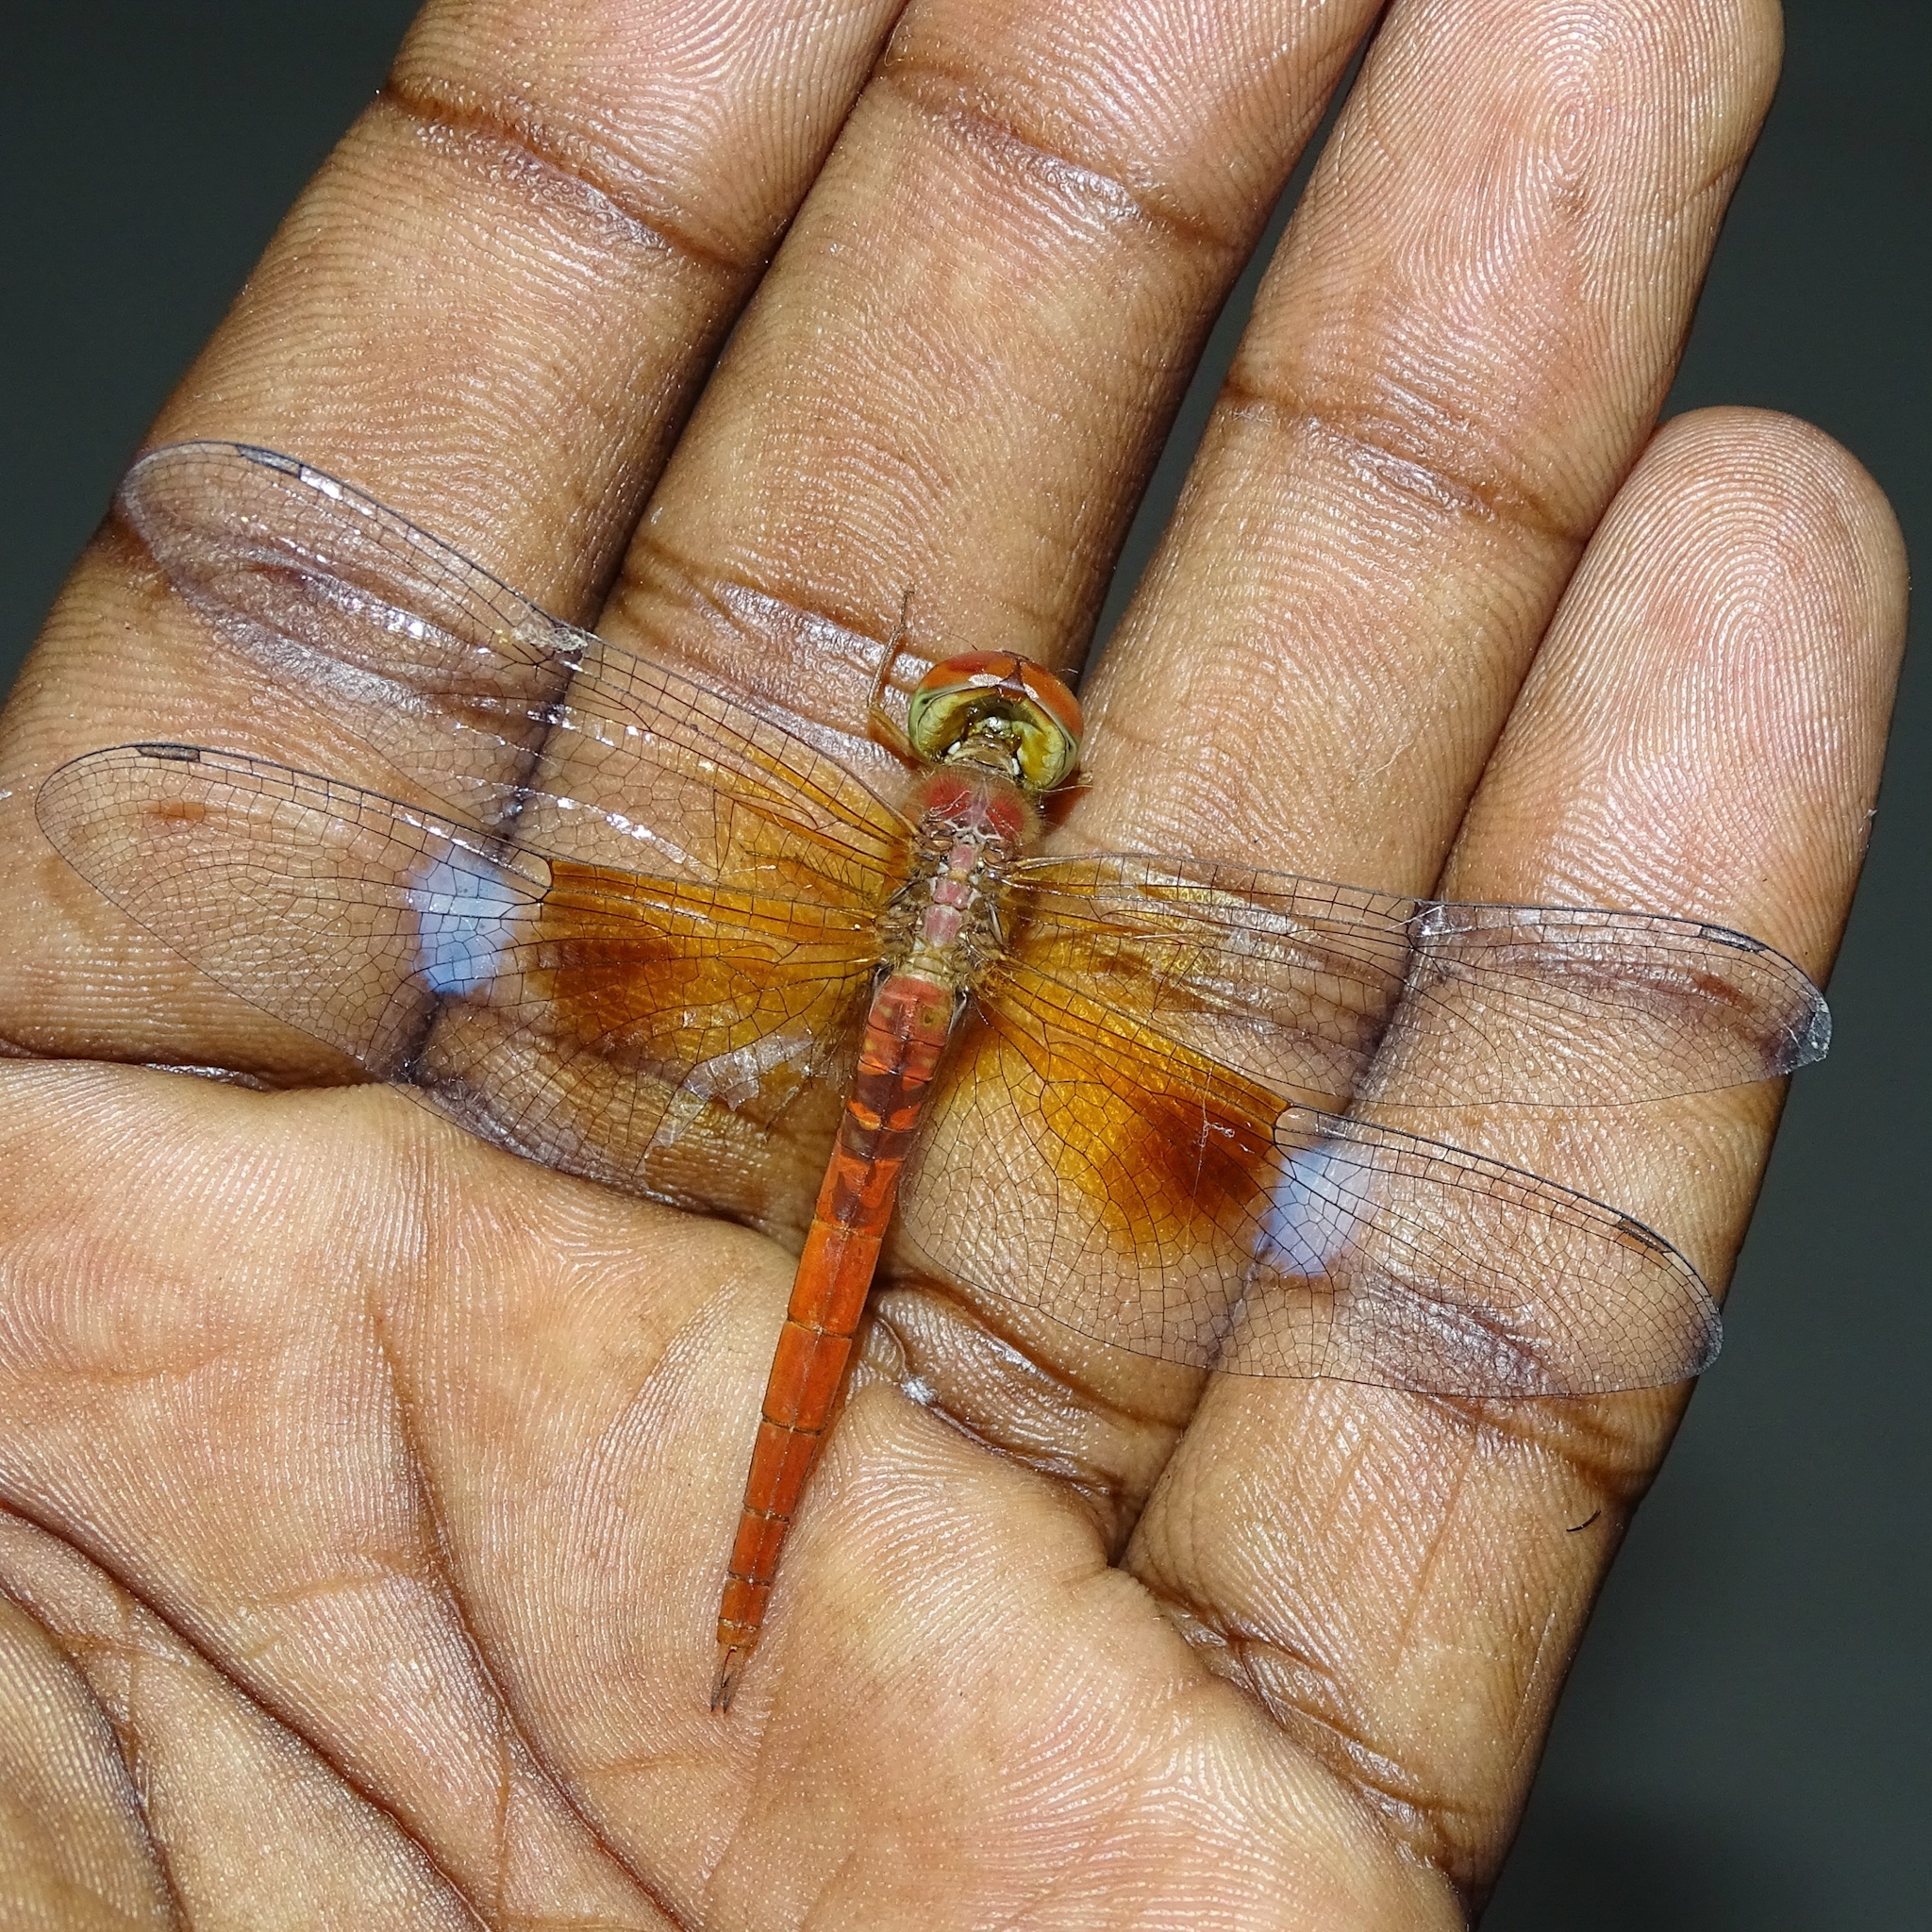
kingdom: Animalia
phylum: Arthropoda
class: Insecta
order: Odonata
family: Libellulidae
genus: Tholymis
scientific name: Tholymis tillarga
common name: Coral-tailed cloud wing
